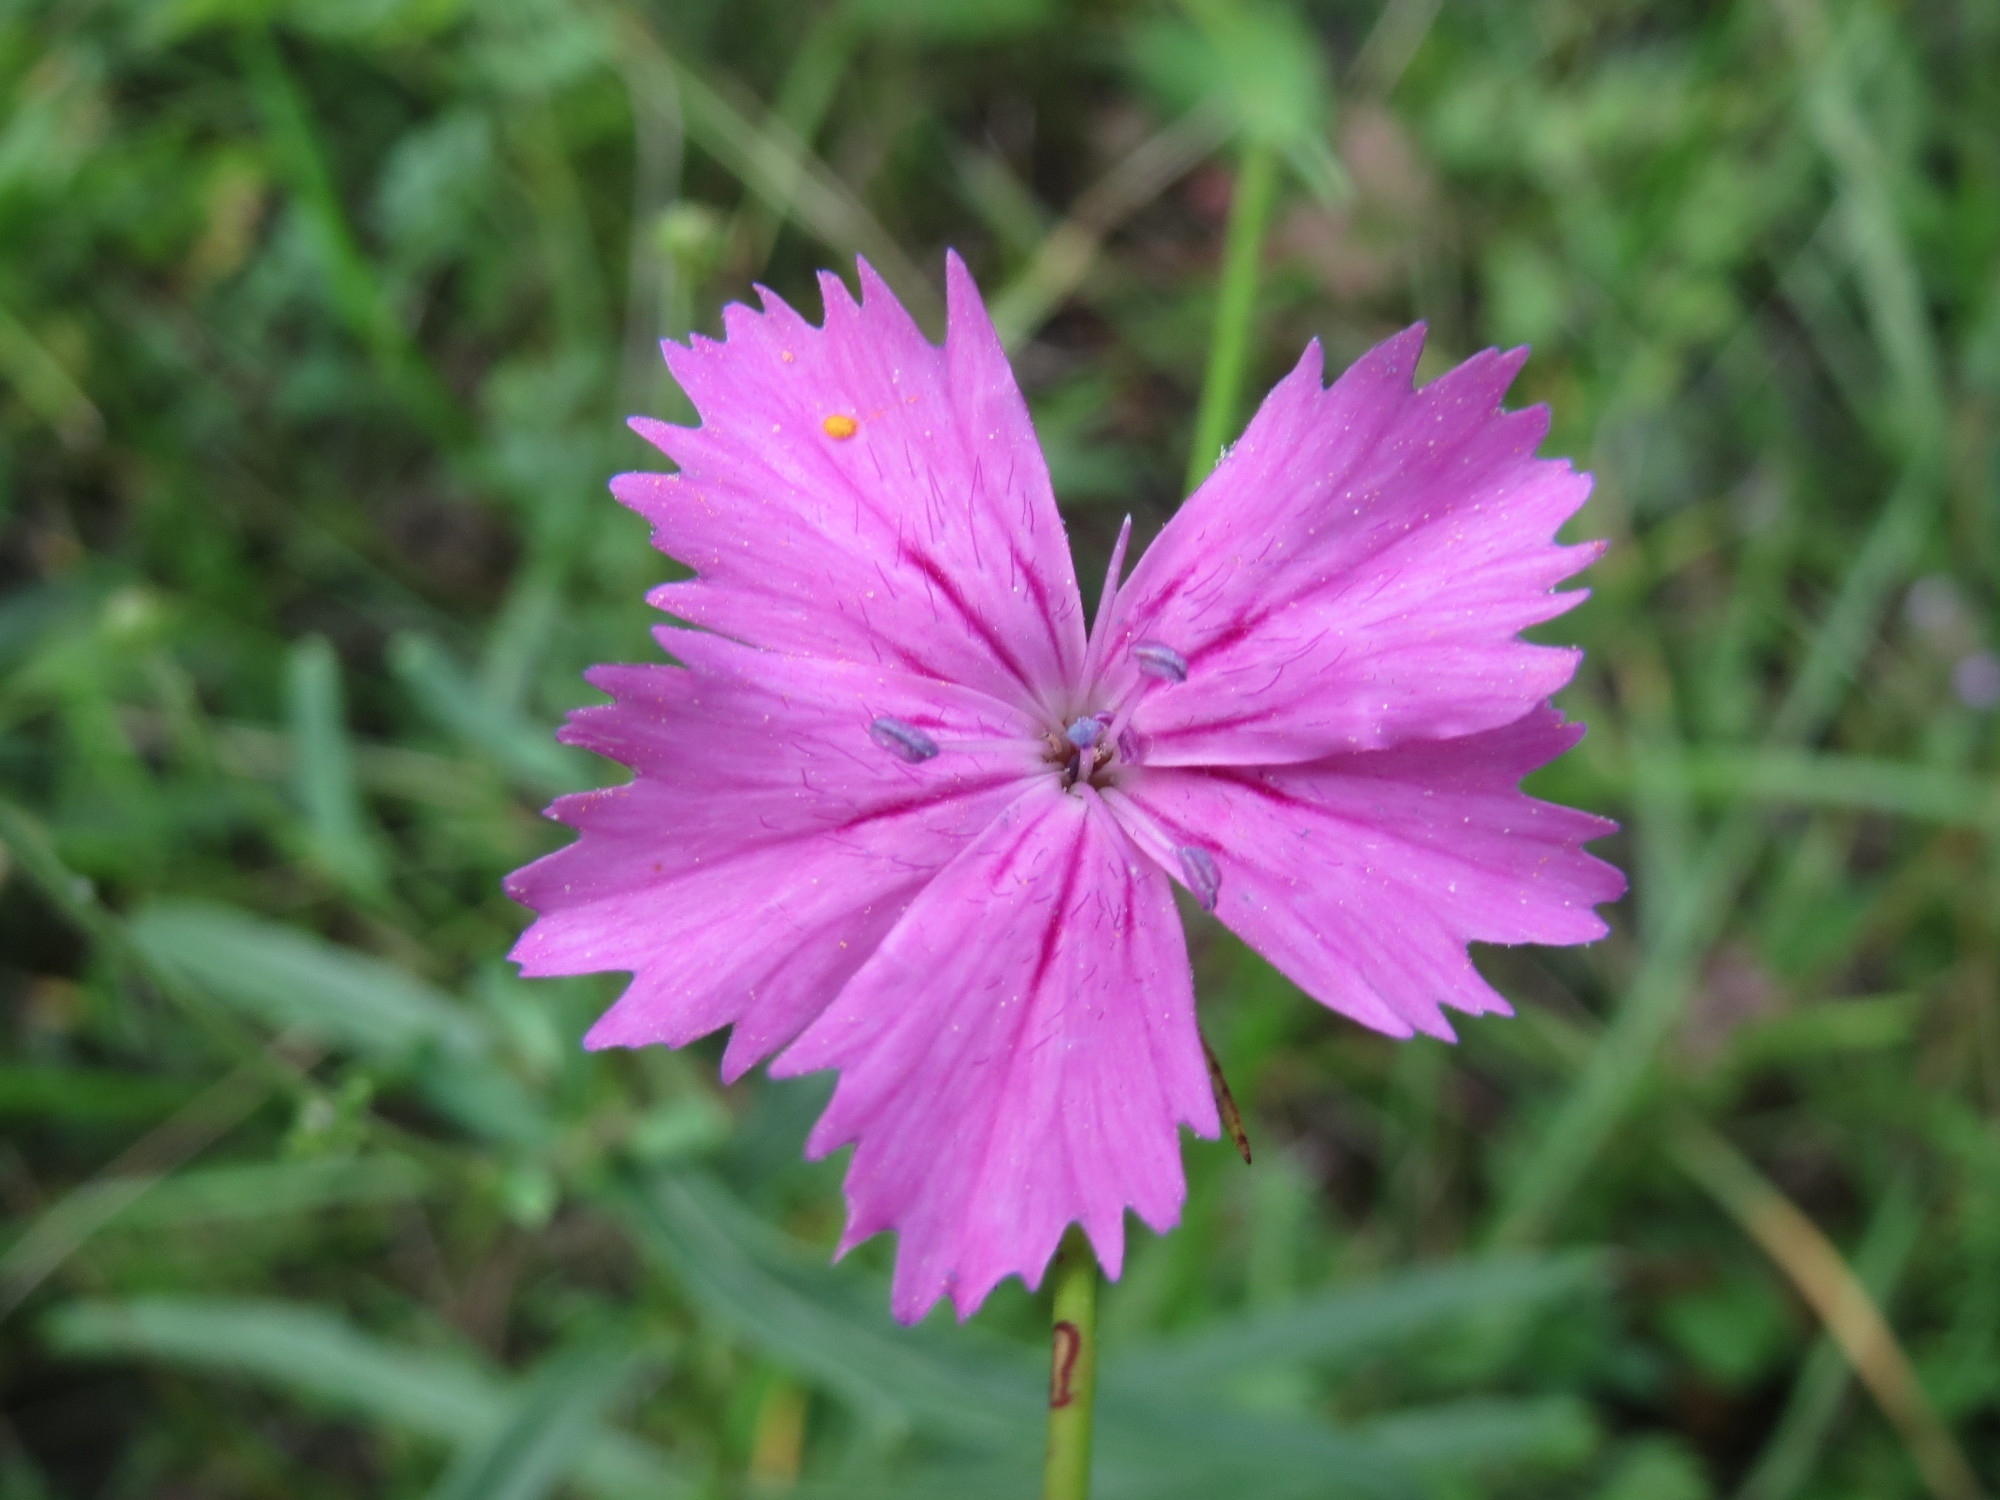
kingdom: Plantae
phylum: Tracheophyta
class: Magnoliopsida
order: Caryophyllales
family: Caryophyllaceae
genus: Dianthus
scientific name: Dianthus carthusianorum
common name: Carthusian pink
